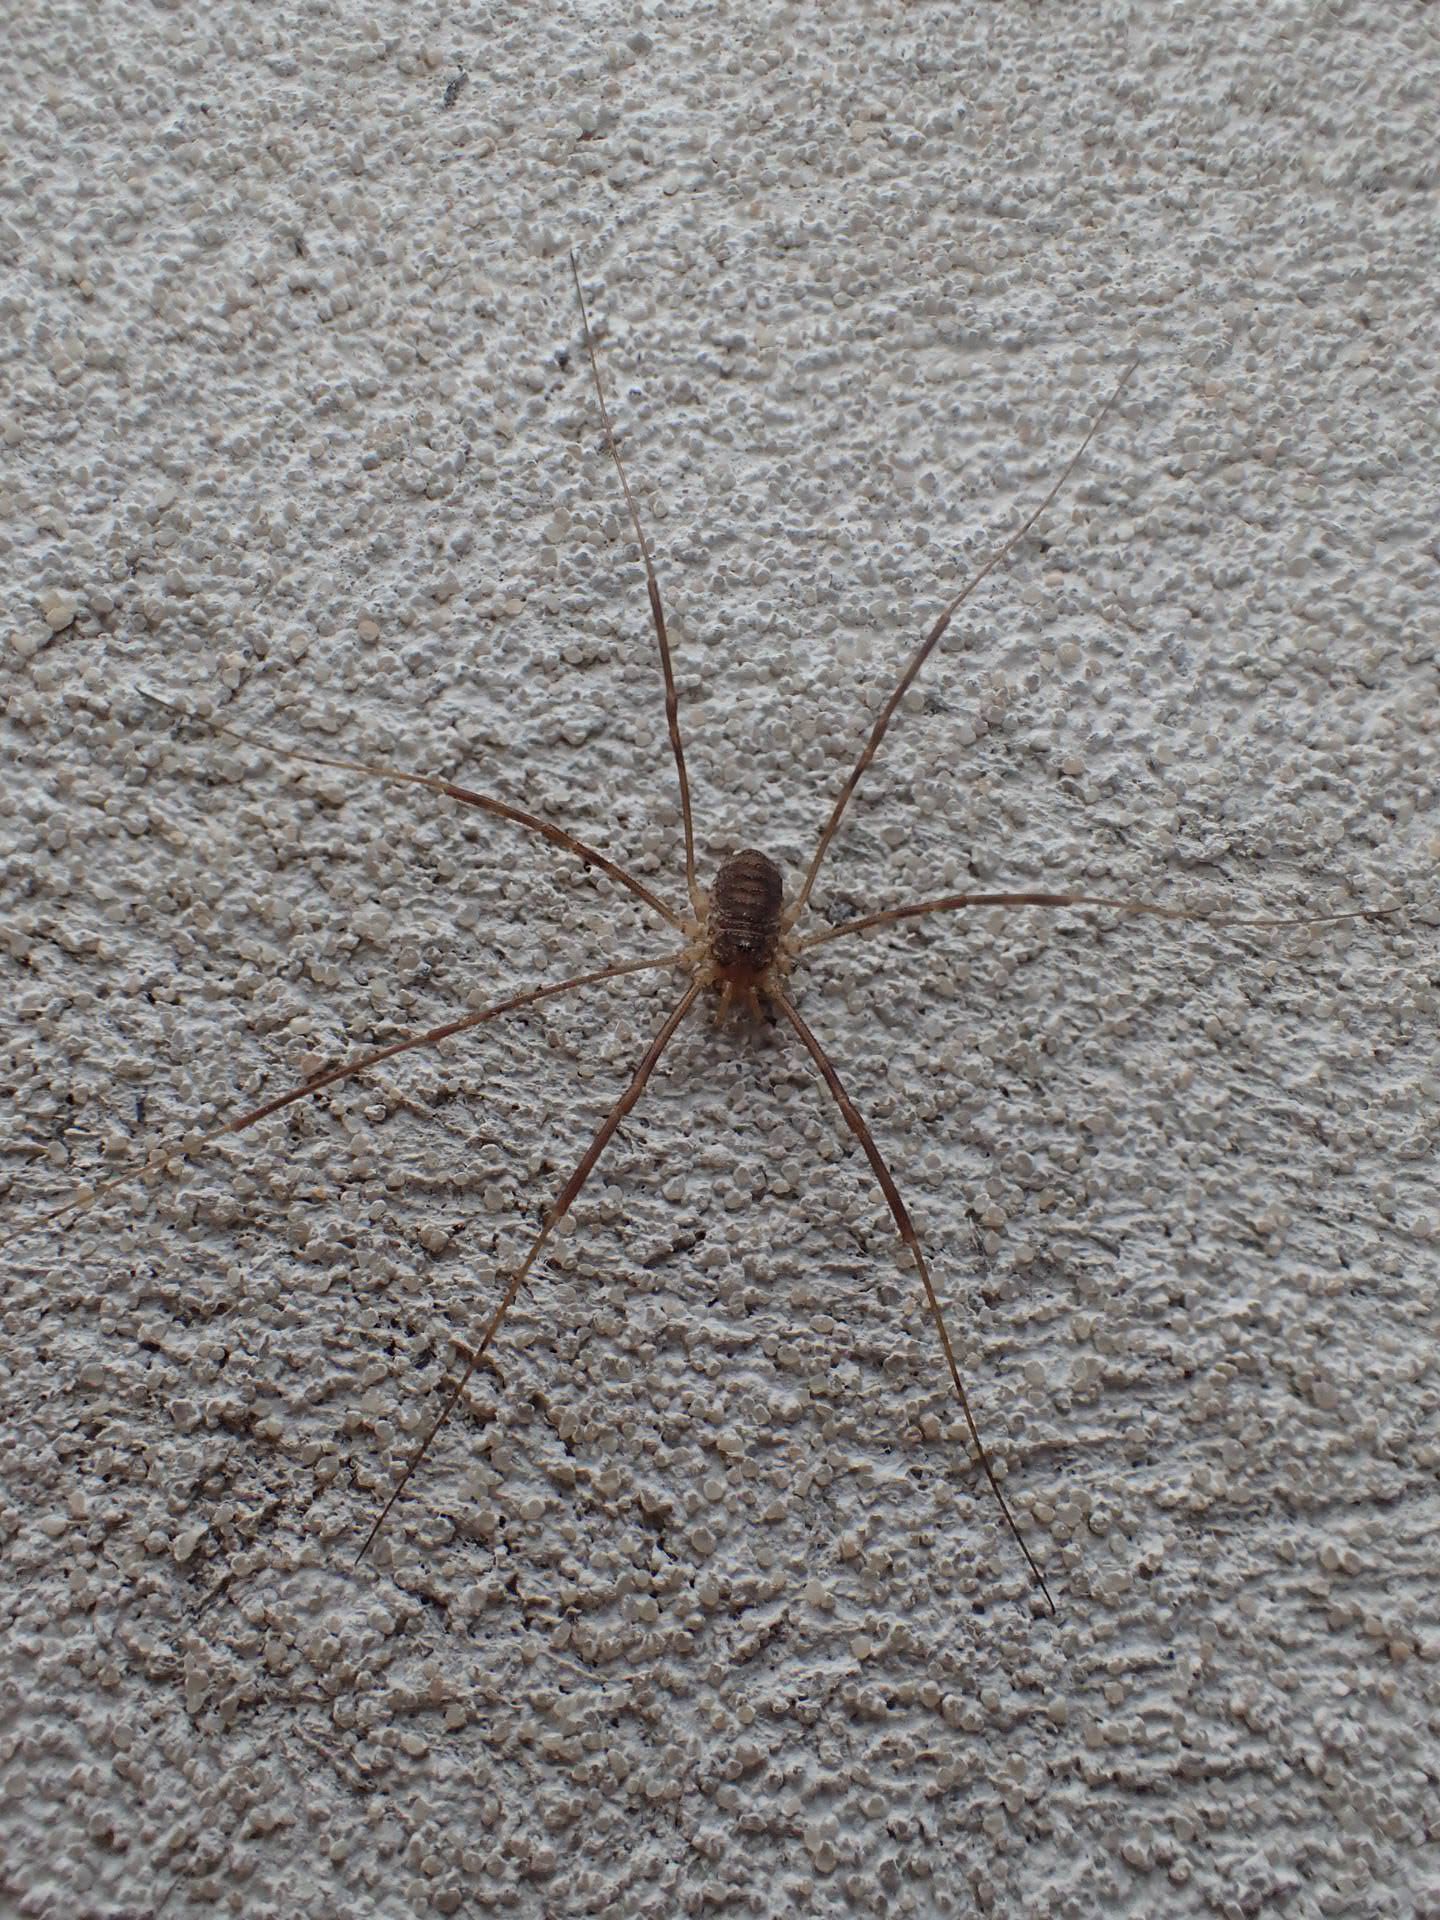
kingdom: Animalia
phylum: Arthropoda
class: Arachnida
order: Opiliones
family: Phalangiidae
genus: Phalangium
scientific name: Phalangium opilio
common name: Daddy longleg
